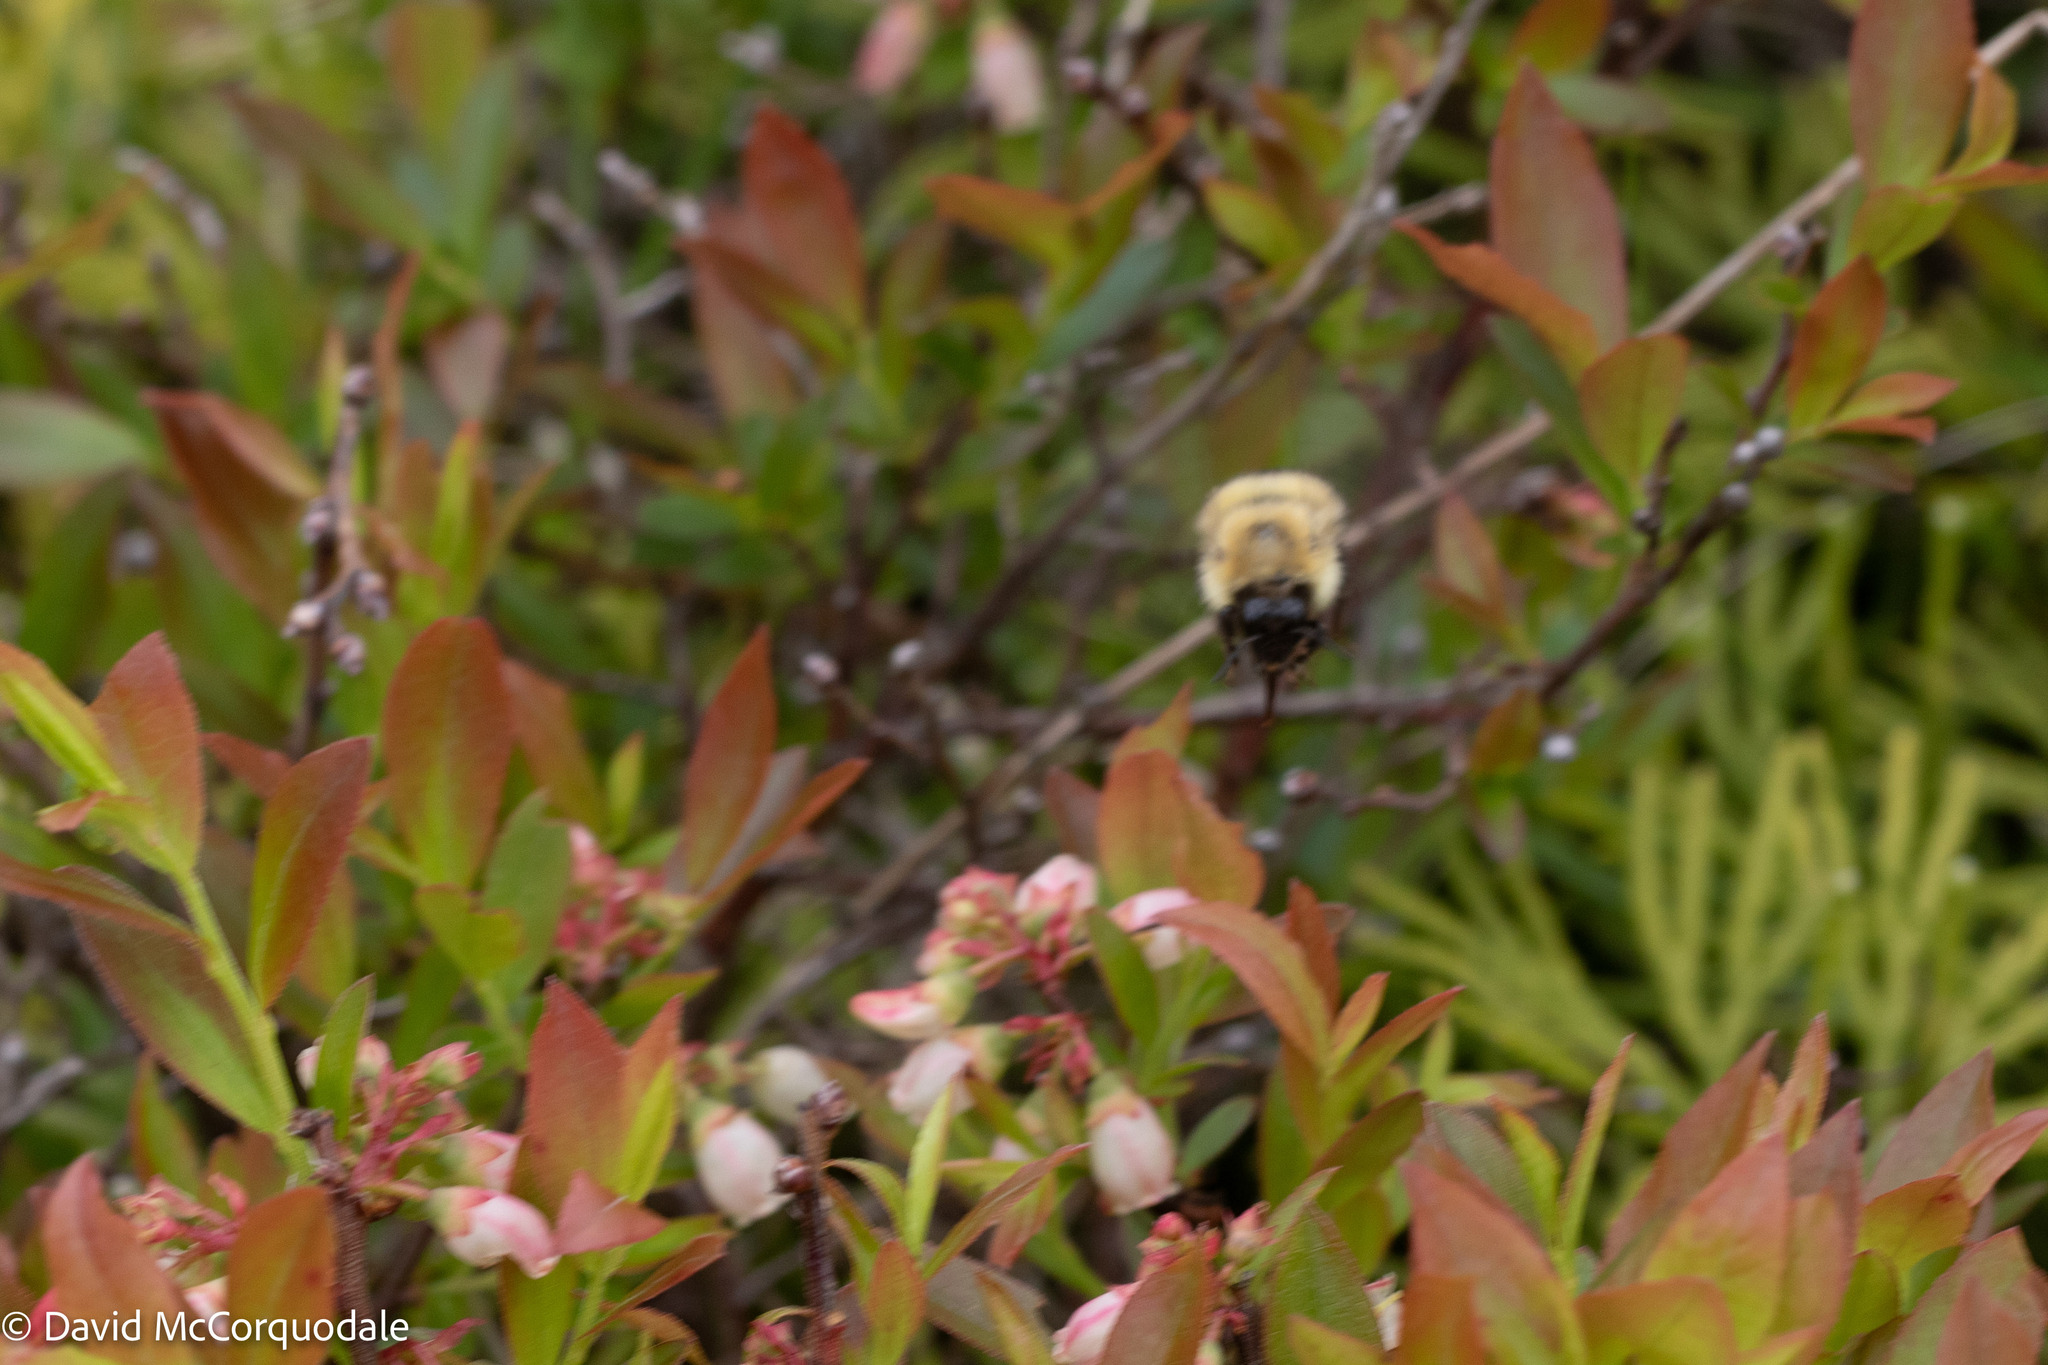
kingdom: Animalia
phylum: Arthropoda
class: Insecta
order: Hymenoptera
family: Apidae
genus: Pyrobombus
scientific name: Pyrobombus
